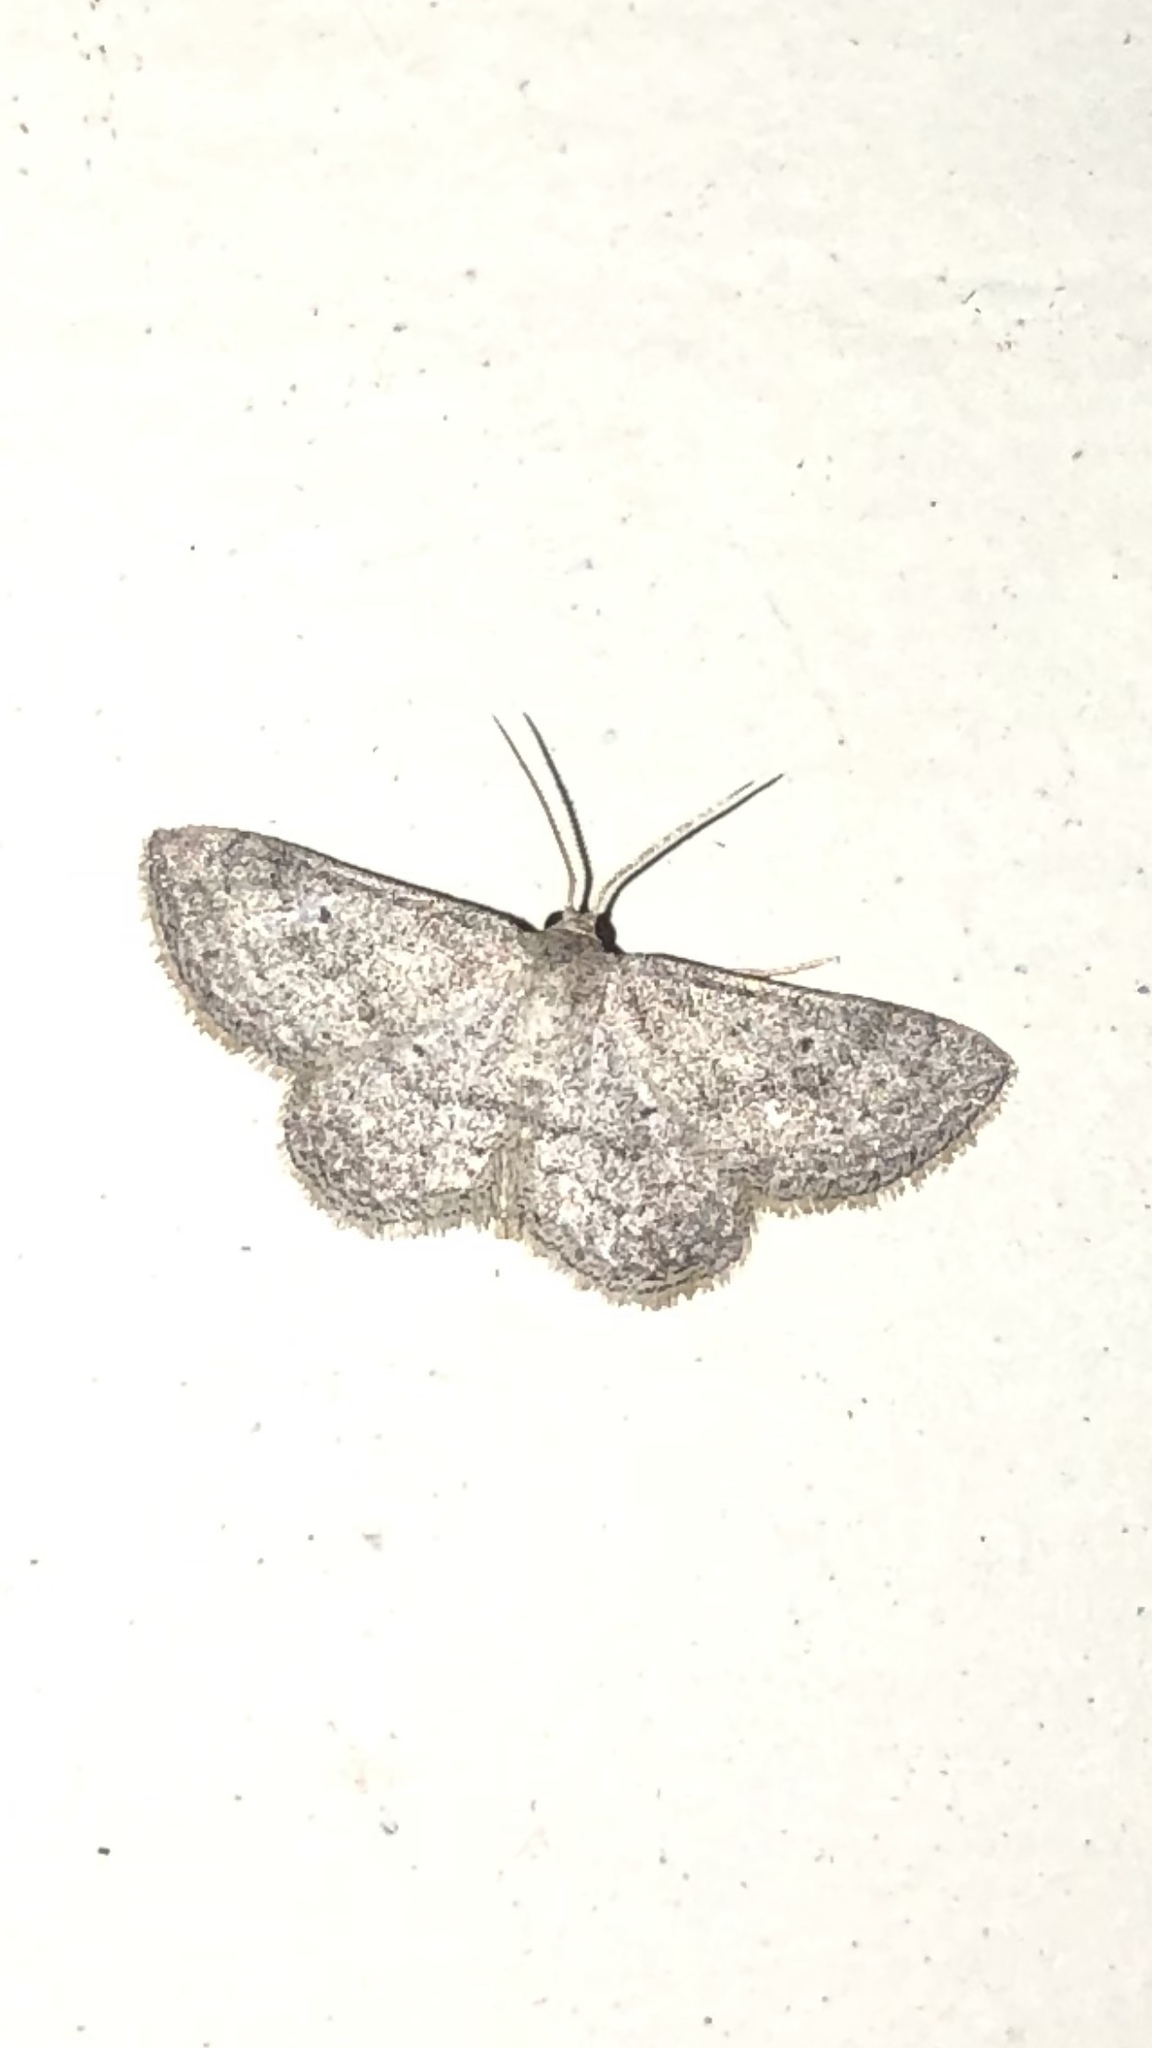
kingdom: Animalia
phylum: Arthropoda
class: Insecta
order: Lepidoptera
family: Geometridae
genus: Lobocleta
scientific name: Lobocleta ossularia
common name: Drab brown wave
